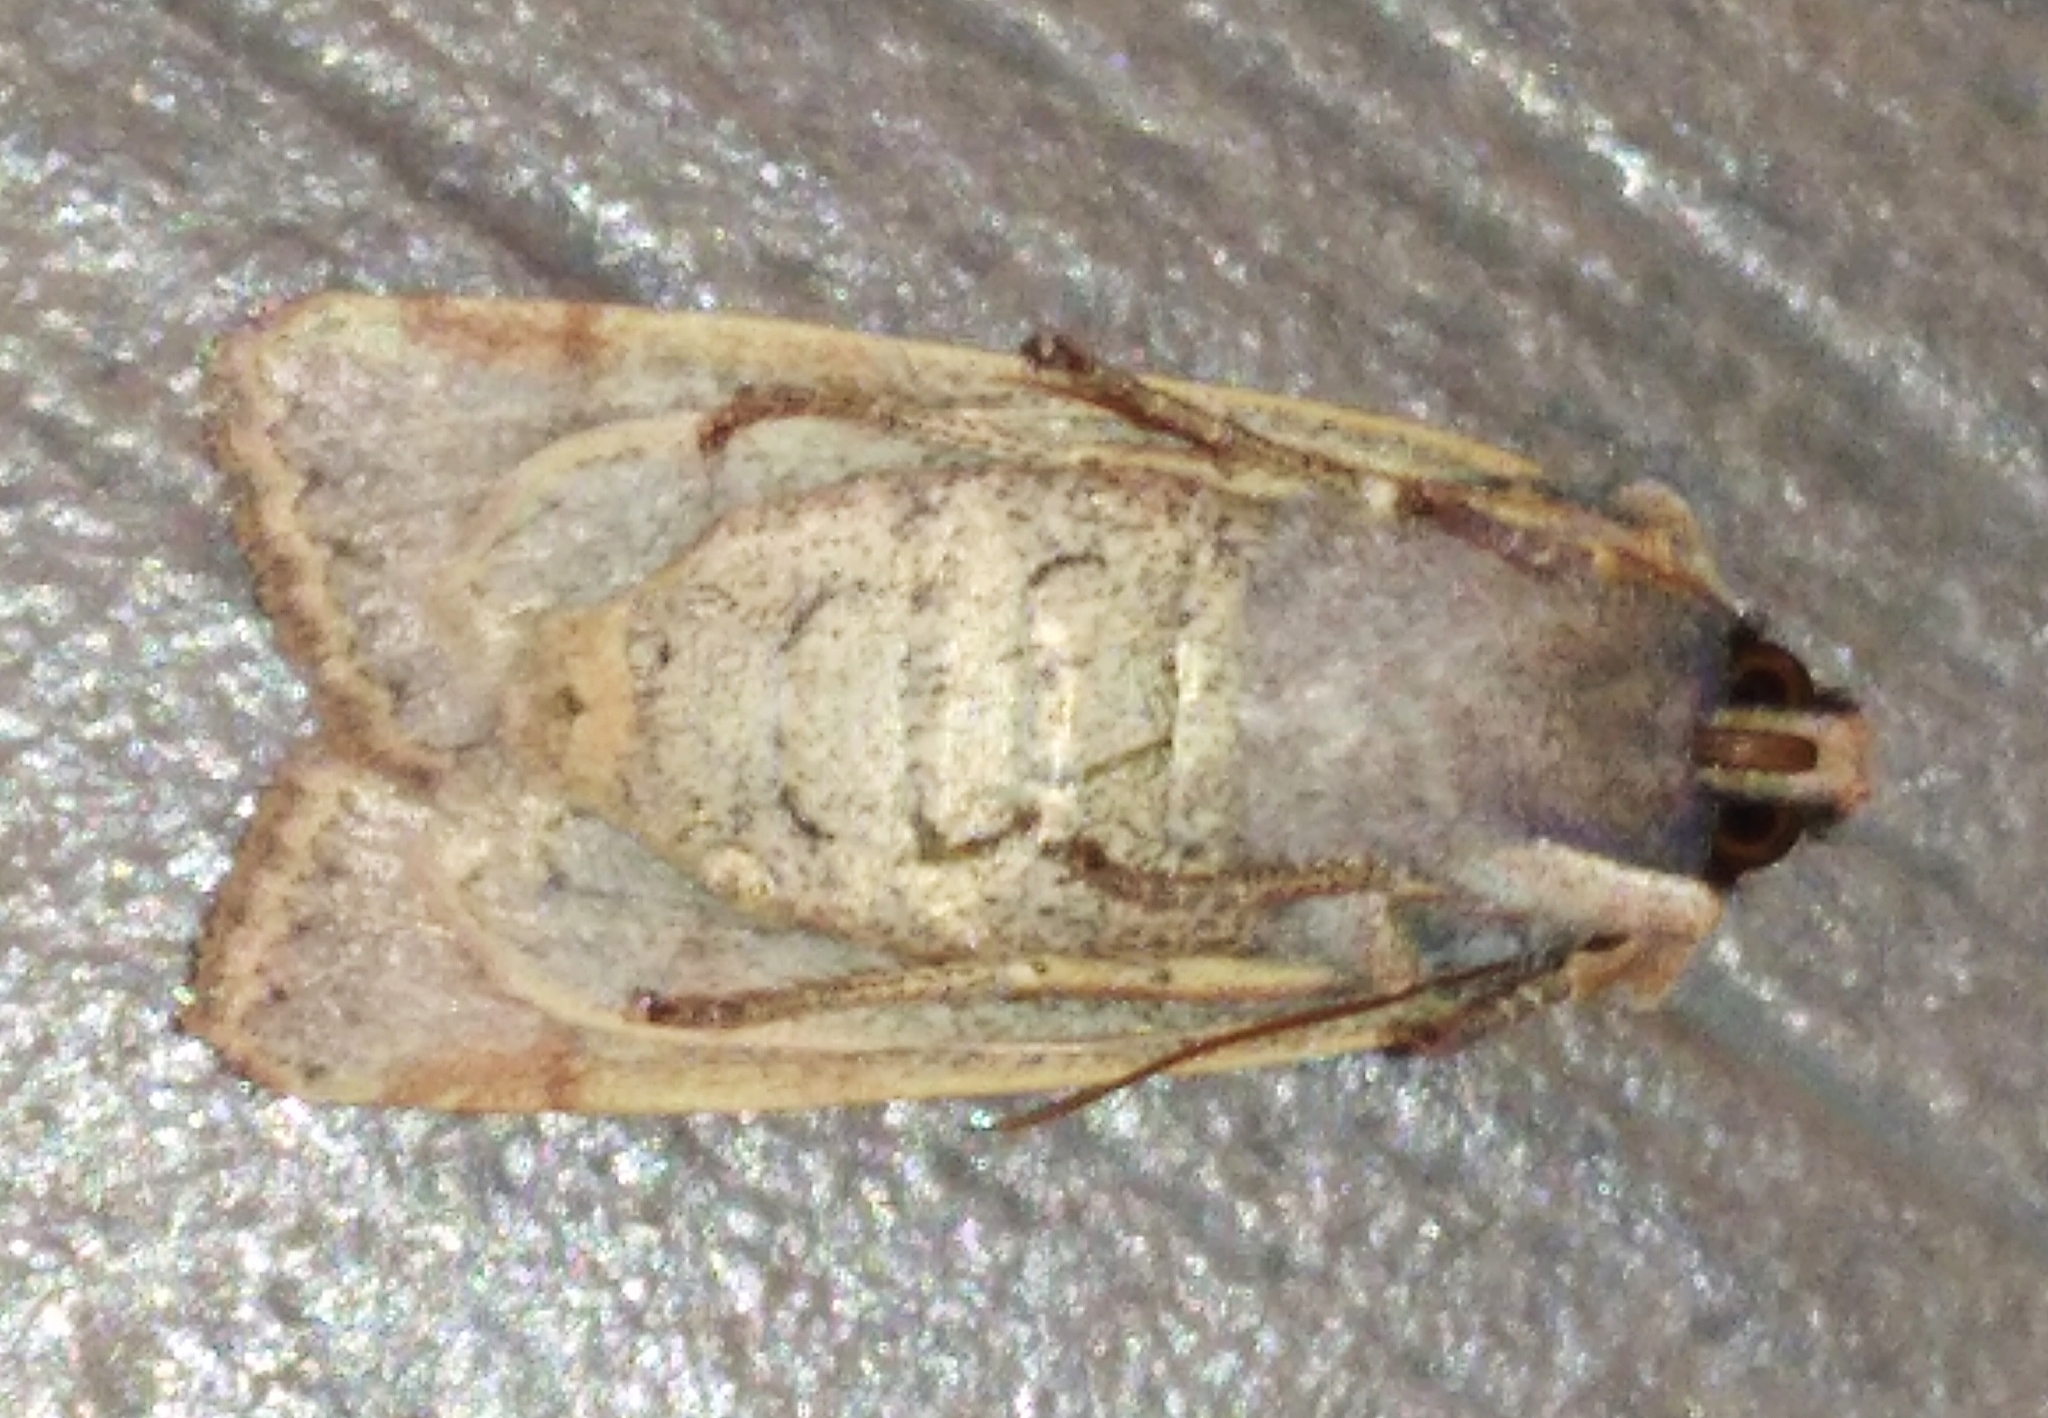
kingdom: Animalia
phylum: Arthropoda
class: Insecta
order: Lepidoptera
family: Noctuidae
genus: Agrochola
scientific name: Agrochola lychnidis
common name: Beaded chestnut
